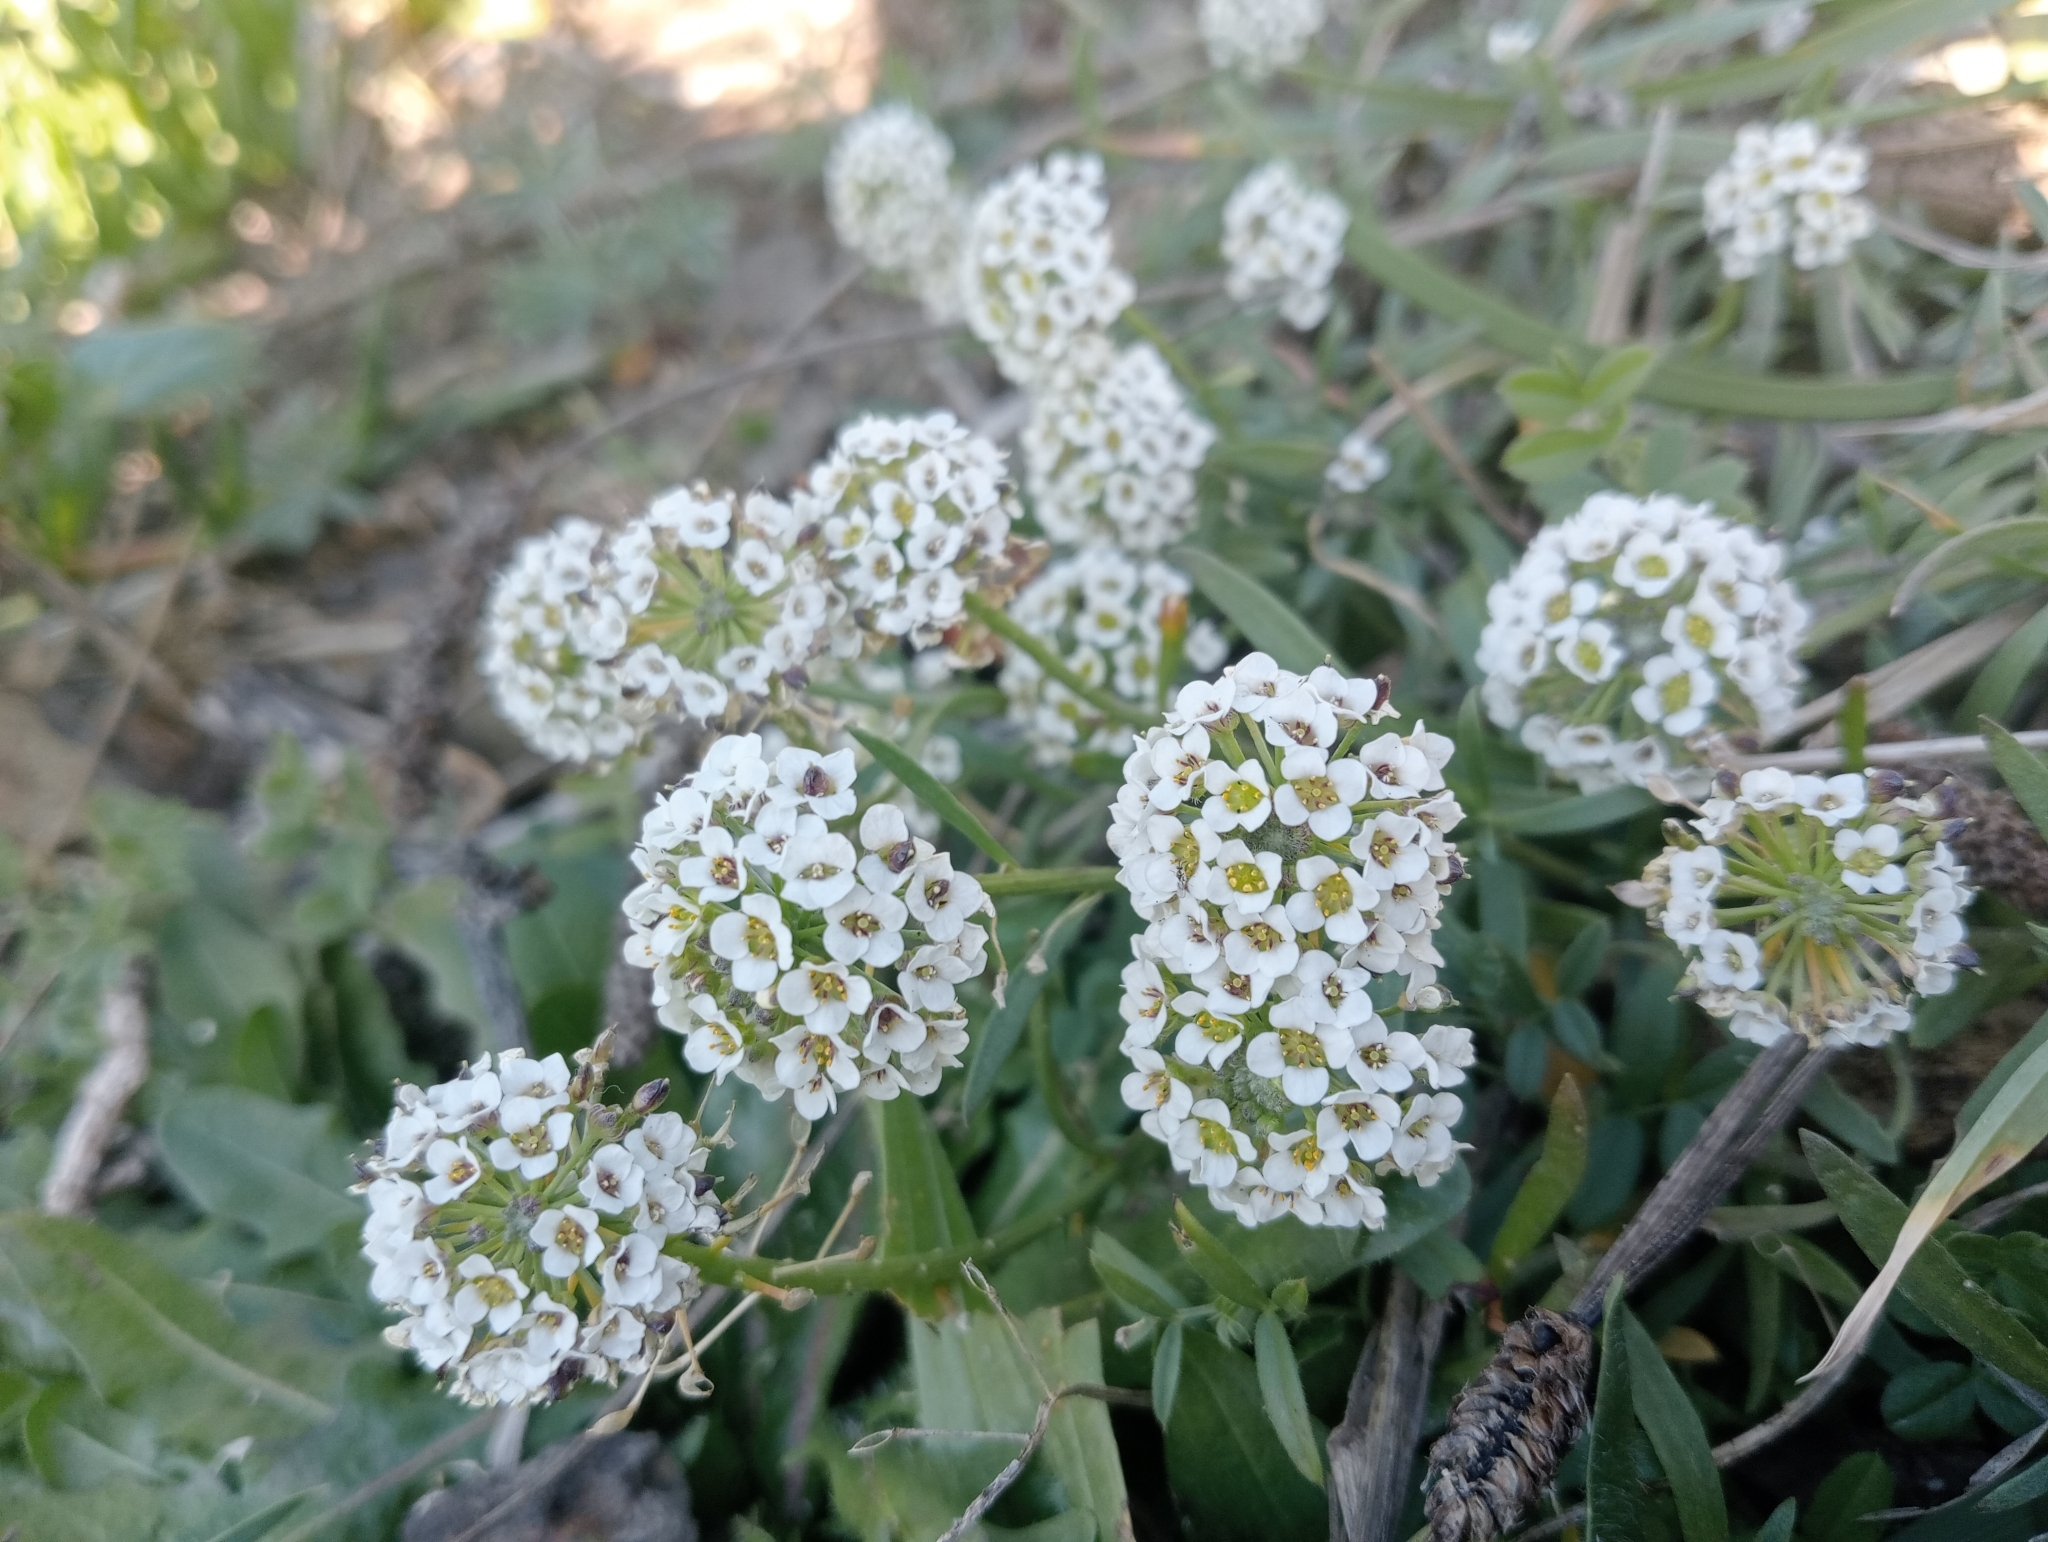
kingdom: Plantae
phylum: Tracheophyta
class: Magnoliopsida
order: Brassicales
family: Brassicaceae
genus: Lobularia
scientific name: Lobularia maritima
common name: Sweet alison
